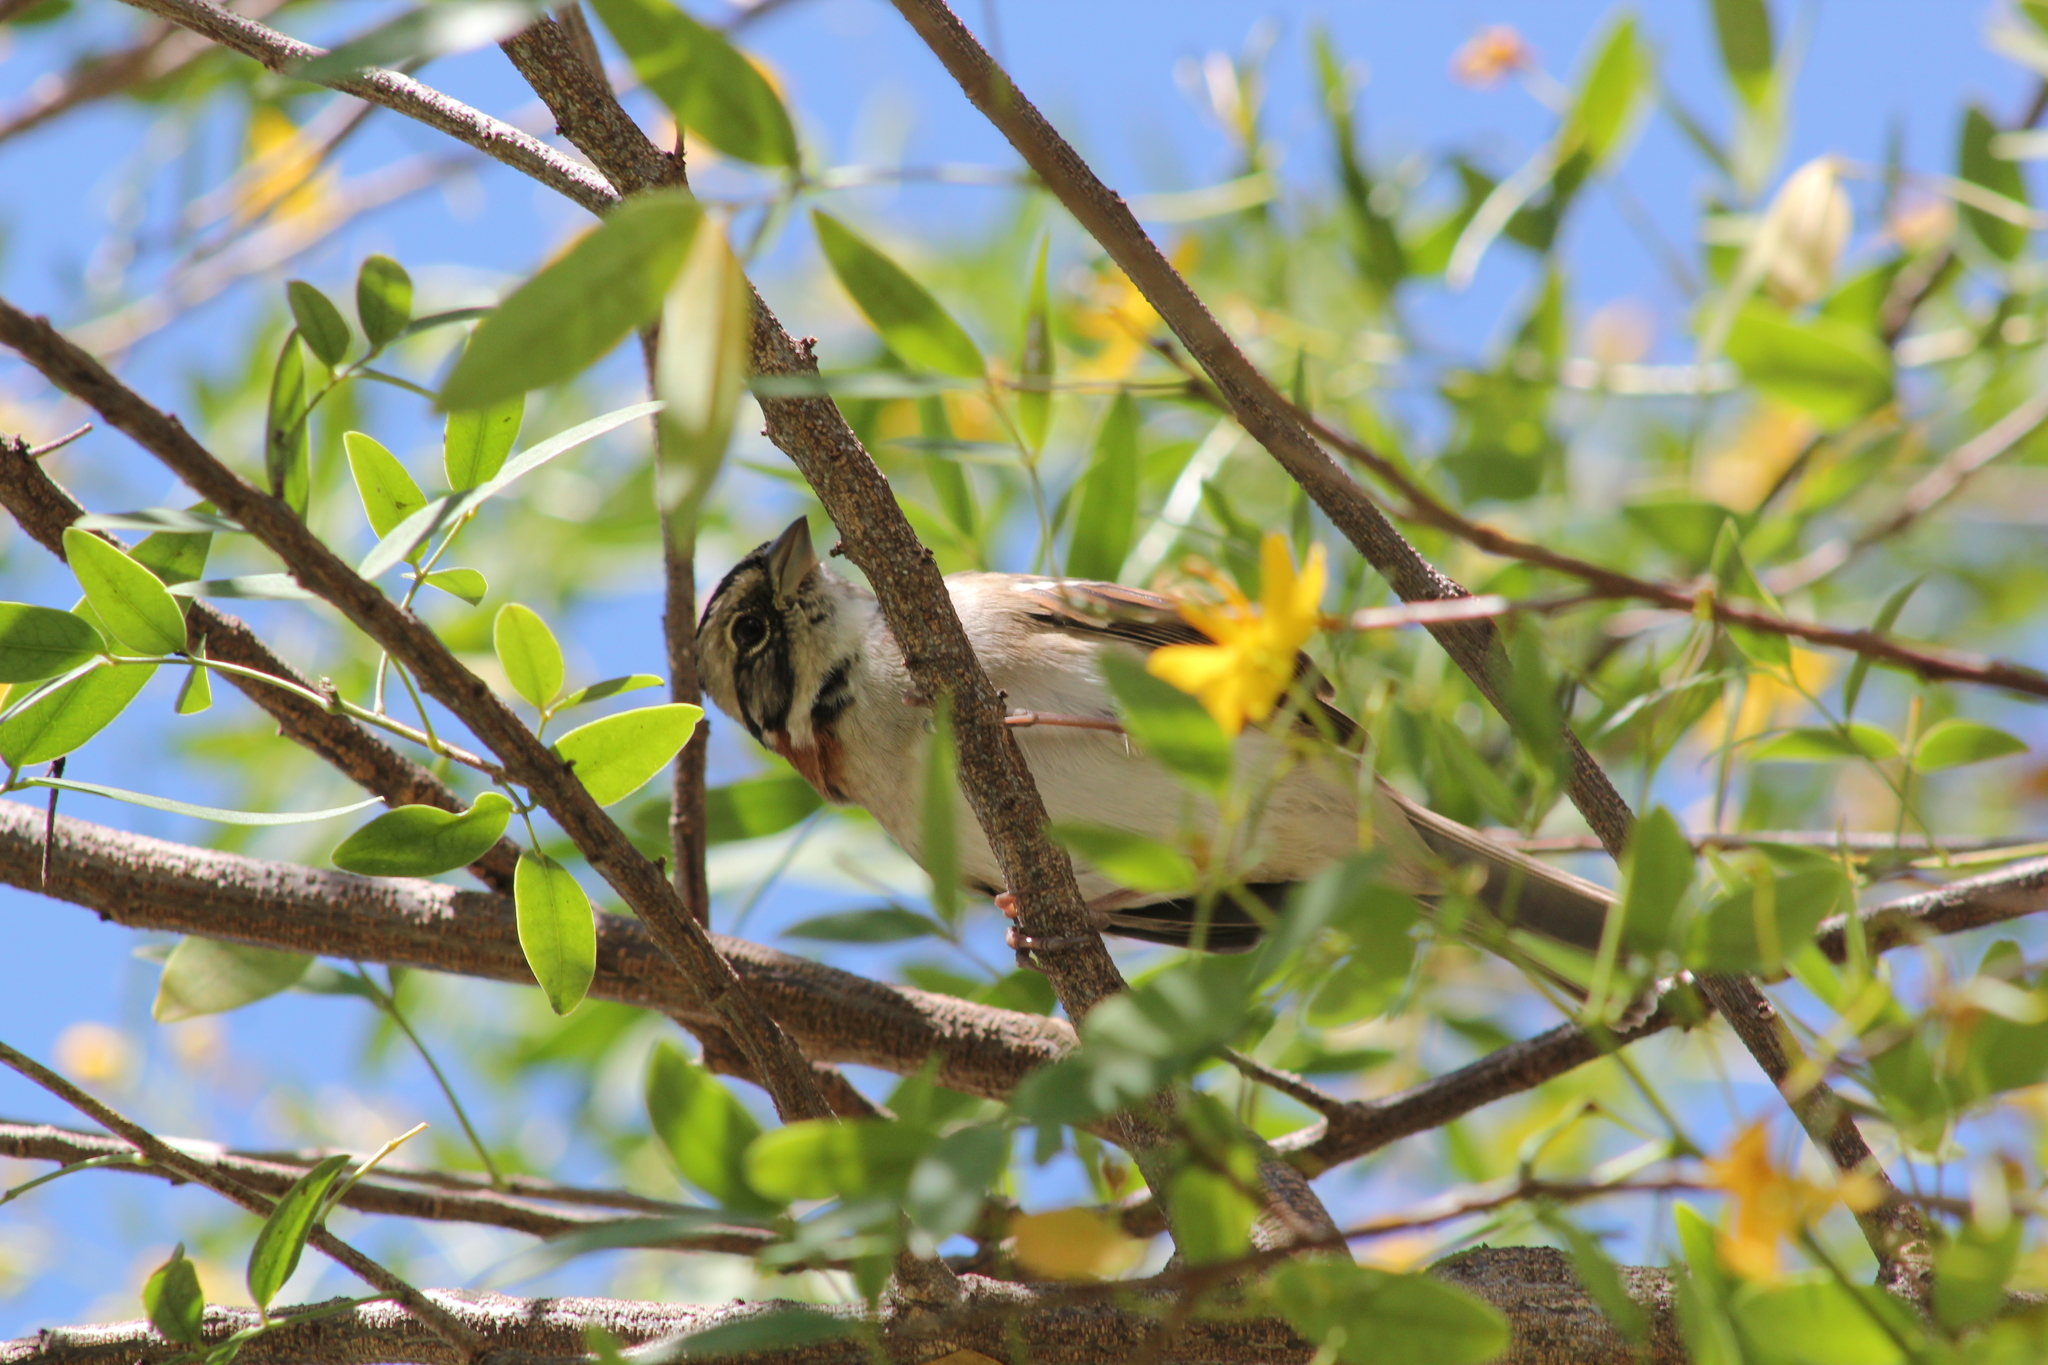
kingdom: Animalia
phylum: Chordata
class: Aves
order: Passeriformes
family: Passerellidae
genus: Zonotrichia
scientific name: Zonotrichia capensis
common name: Rufous-collared sparrow
